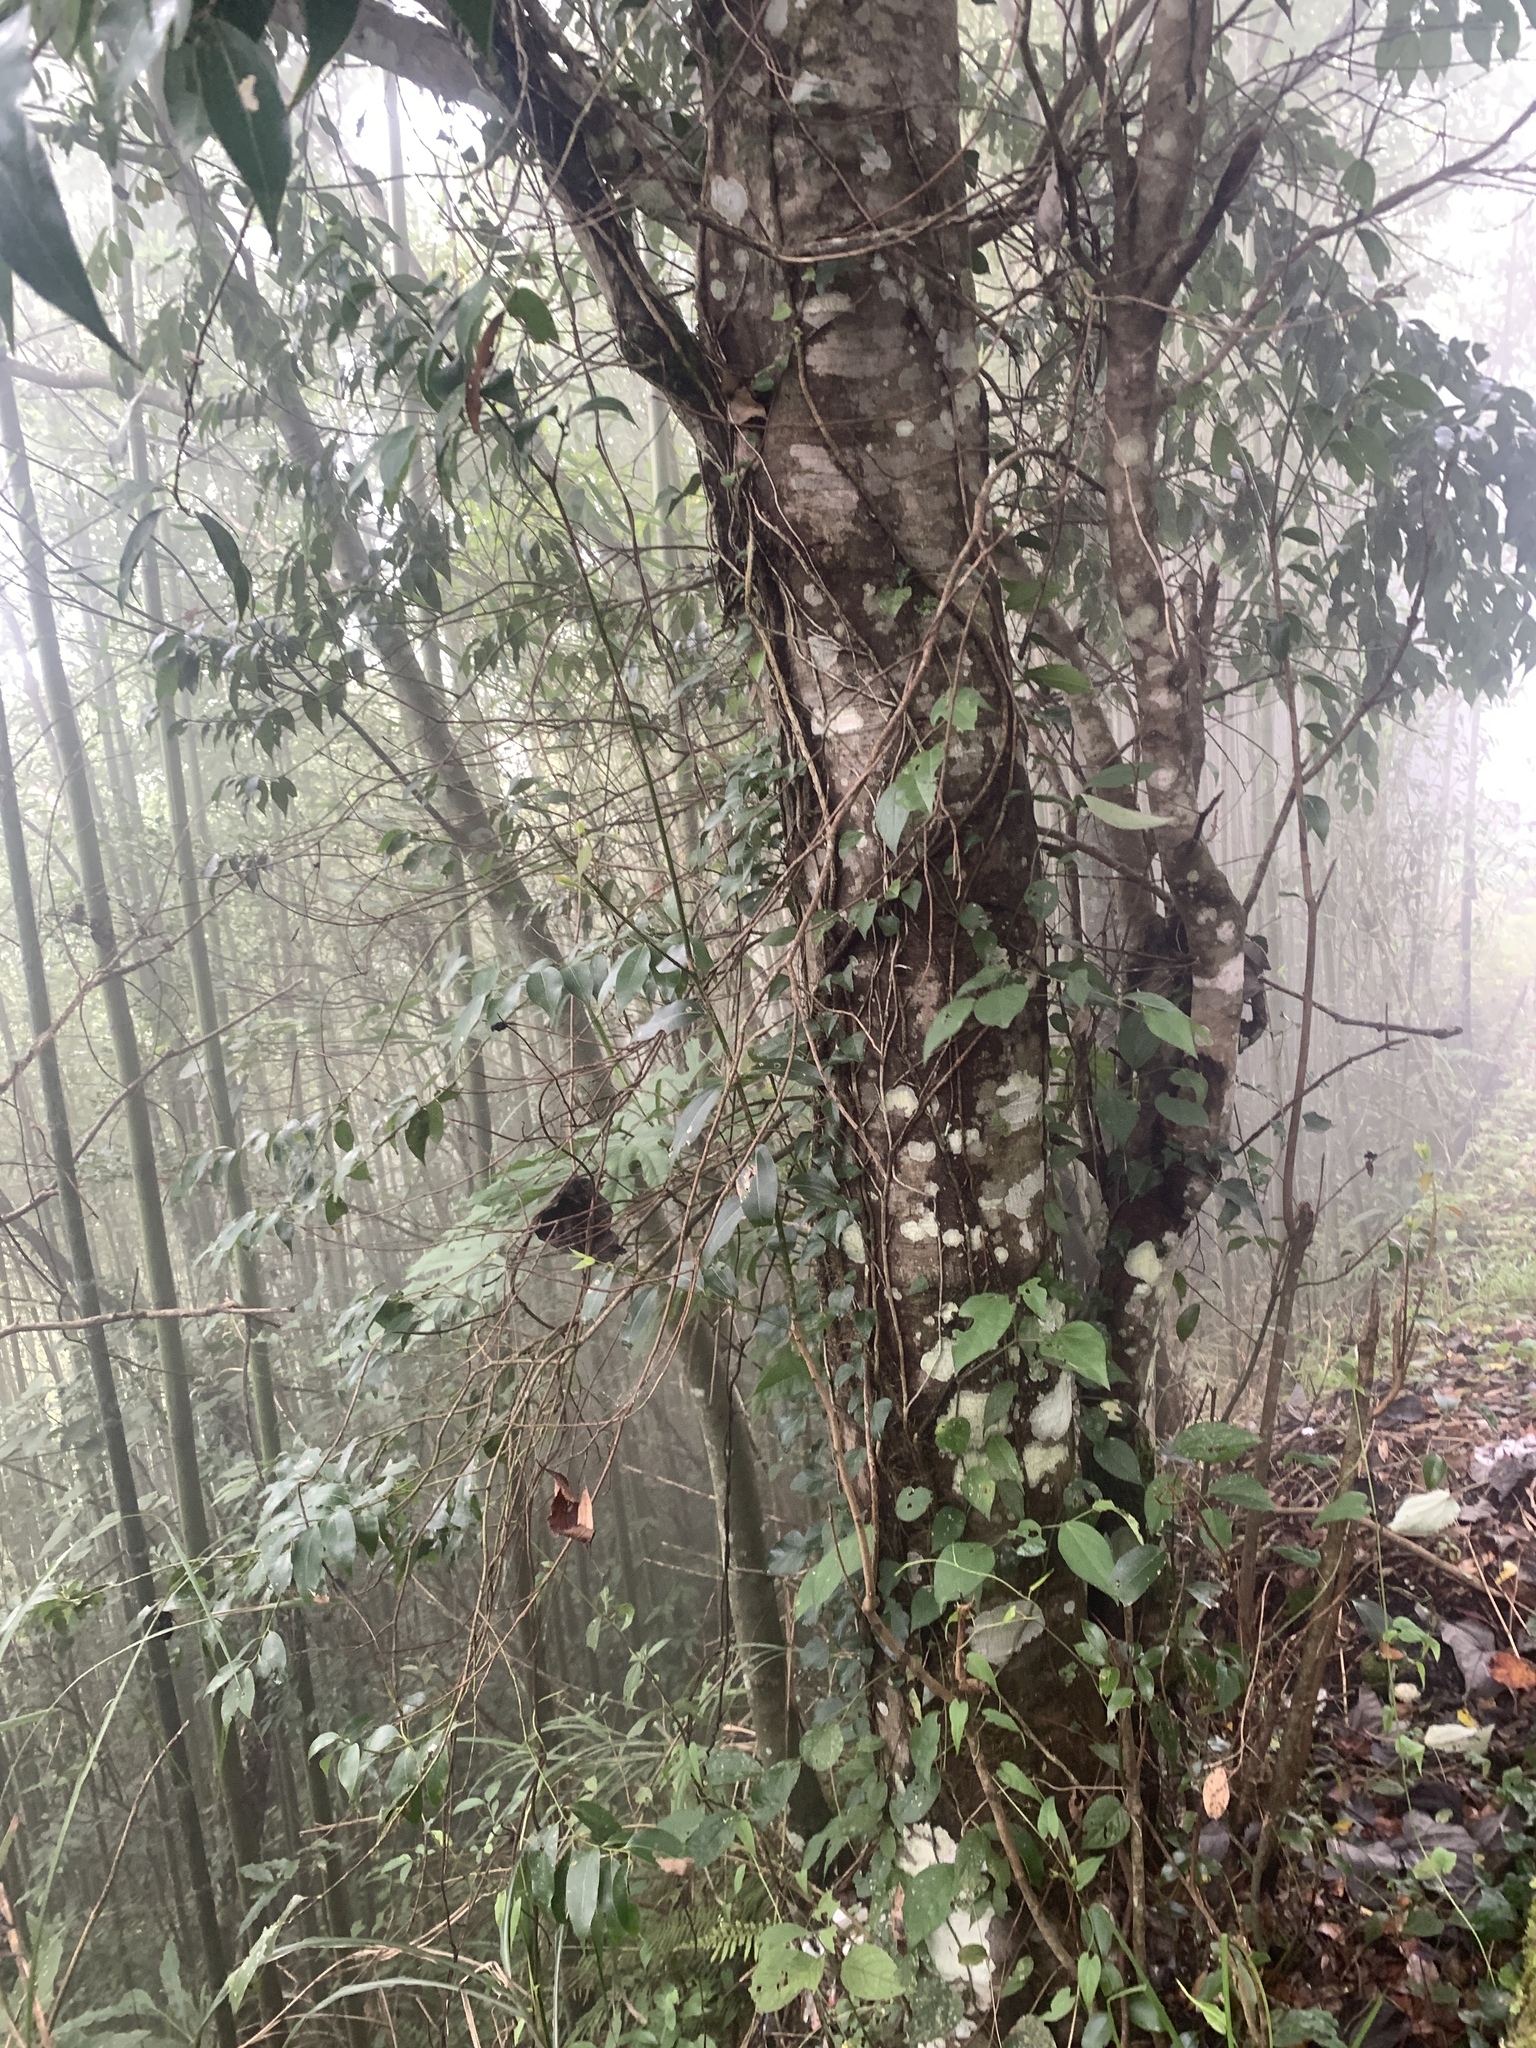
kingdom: Plantae
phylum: Tracheophyta
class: Magnoliopsida
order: Laurales
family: Lauraceae
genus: Cinnamomum
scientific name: Cinnamomum chekiangense
